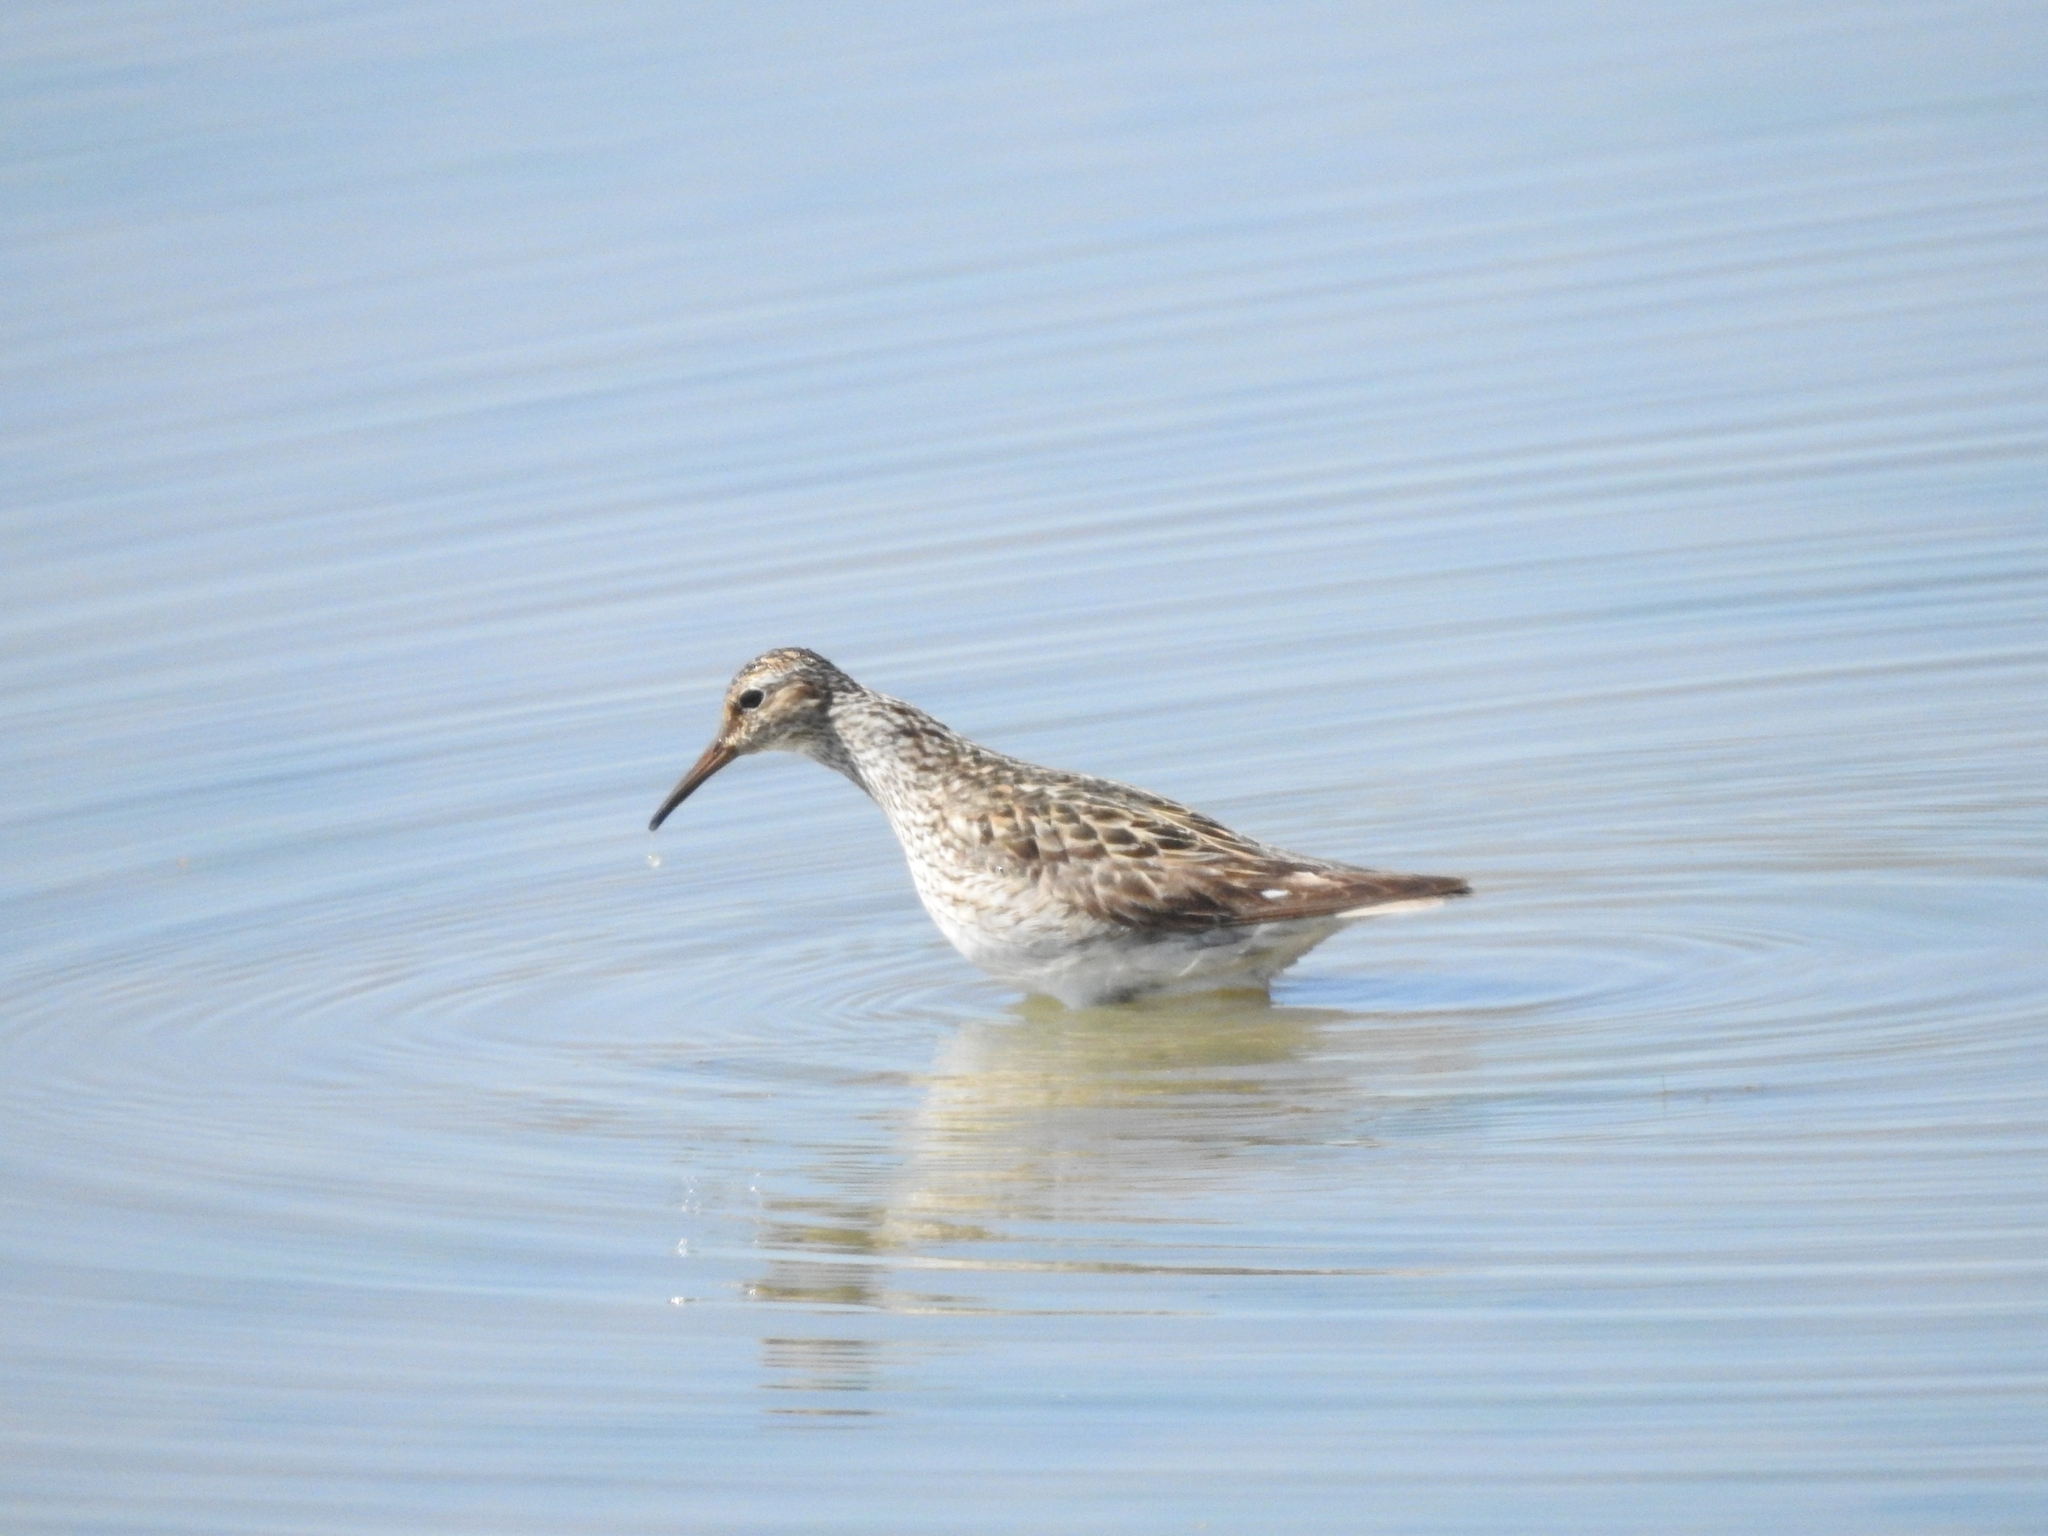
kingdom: Animalia
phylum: Chordata
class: Aves
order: Charadriiformes
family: Scolopacidae
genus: Calidris
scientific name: Calidris melanotos
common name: Pectoral sandpiper
